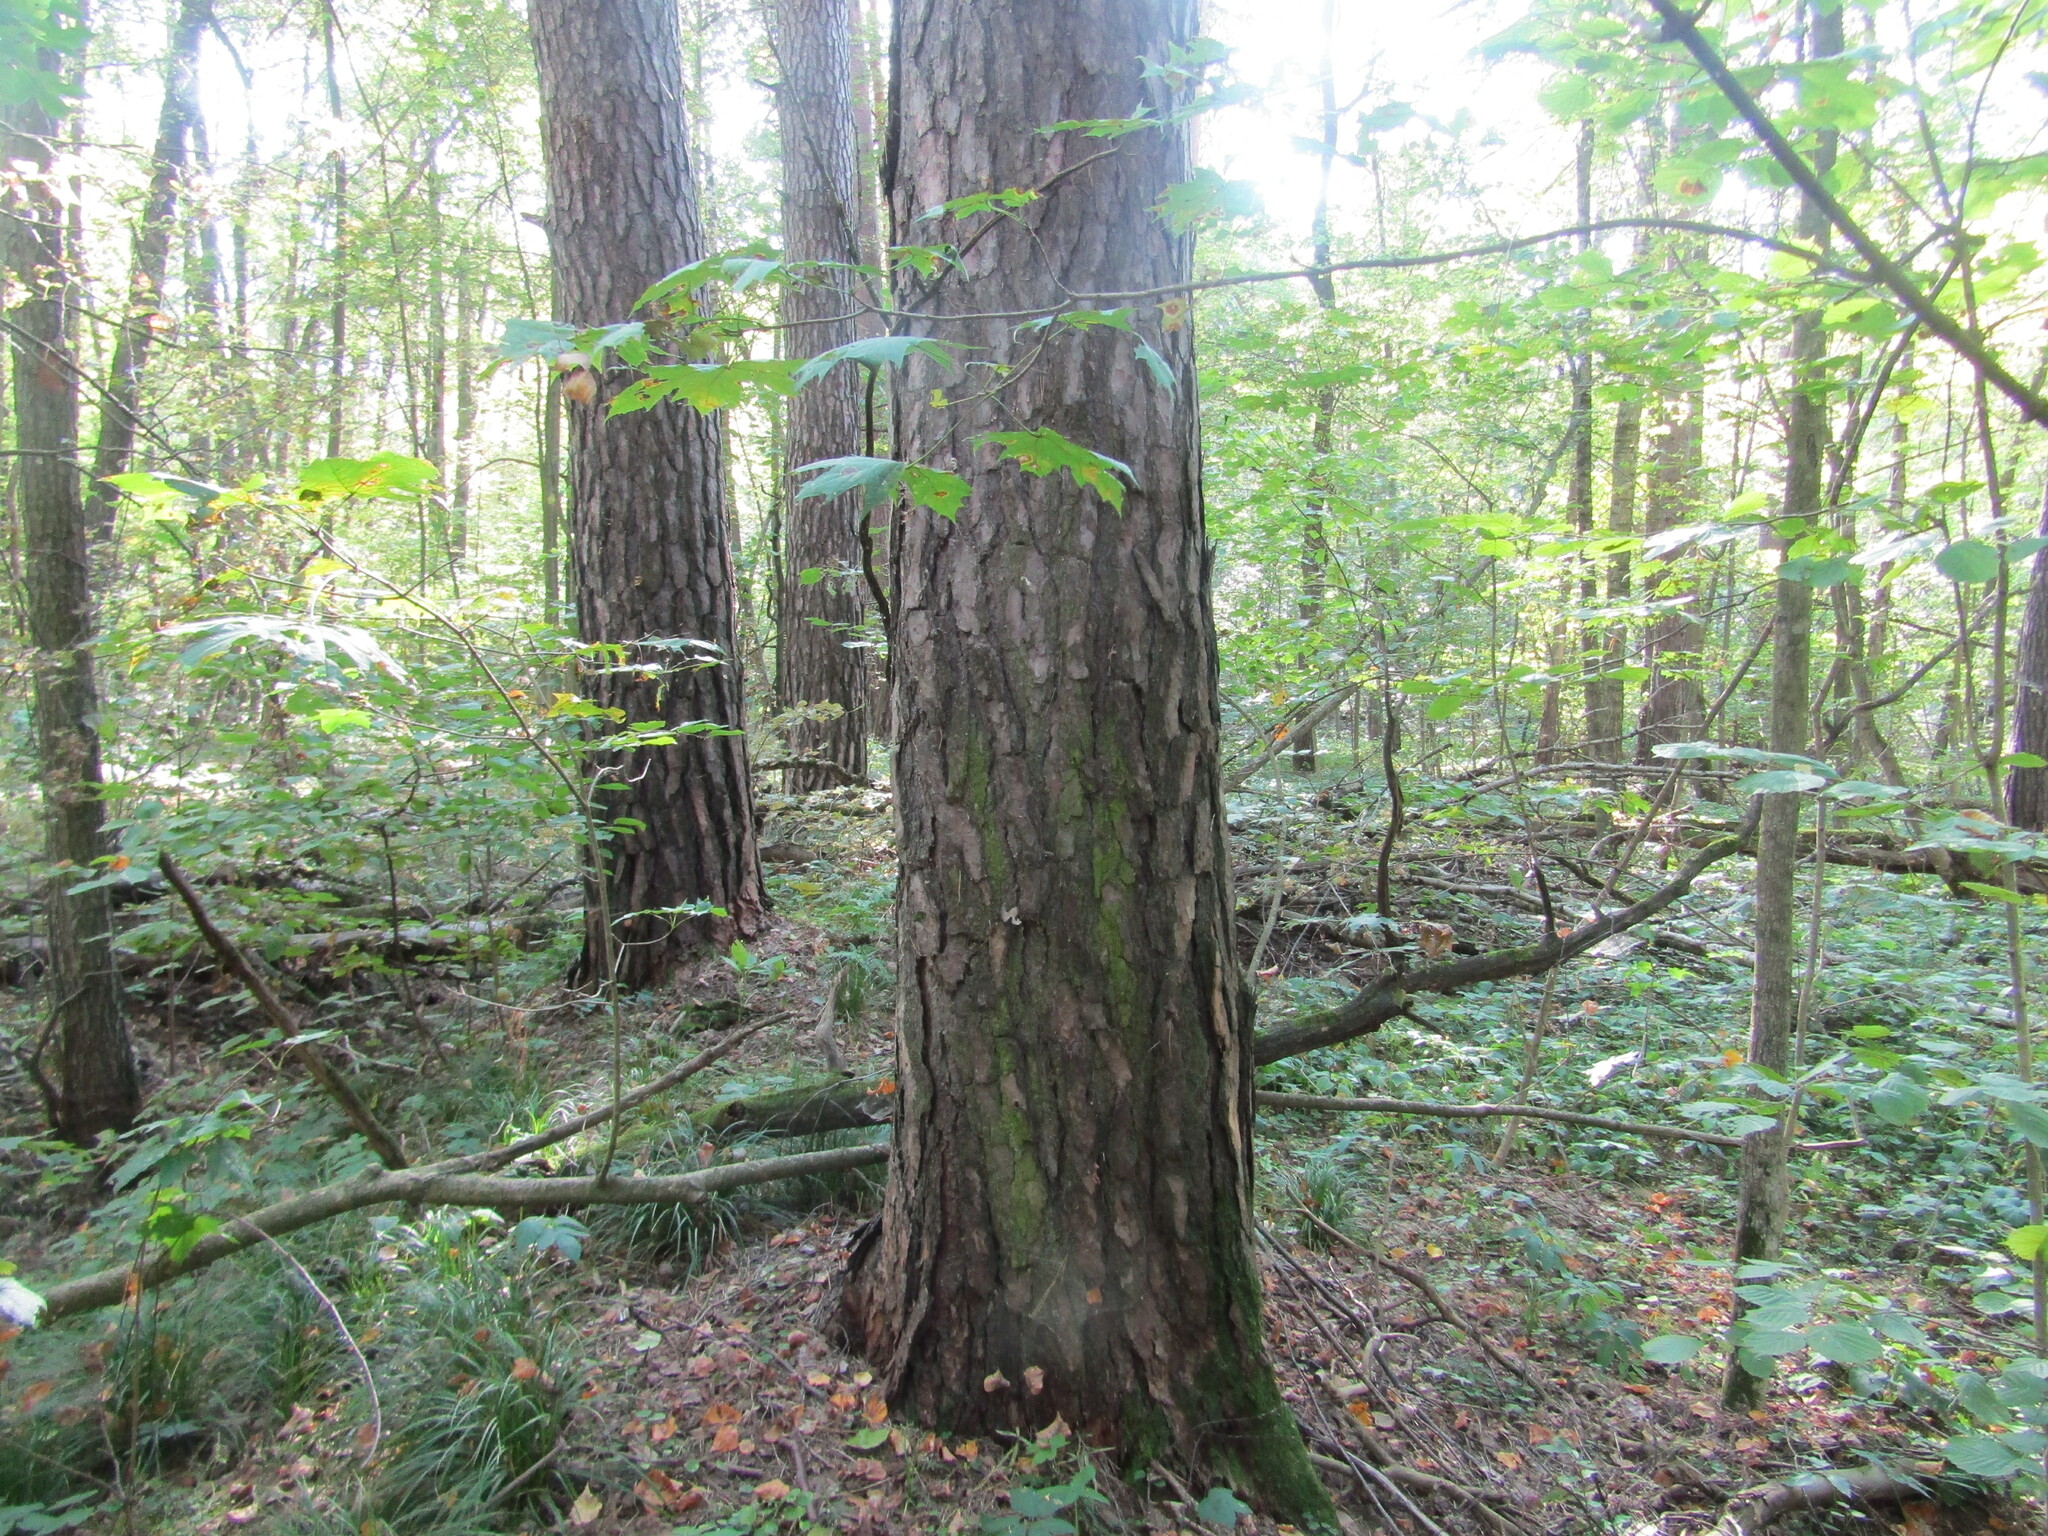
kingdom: Plantae
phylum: Tracheophyta
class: Pinopsida
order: Pinales
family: Pinaceae
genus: Pinus
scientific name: Pinus sylvestris
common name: Scots pine
